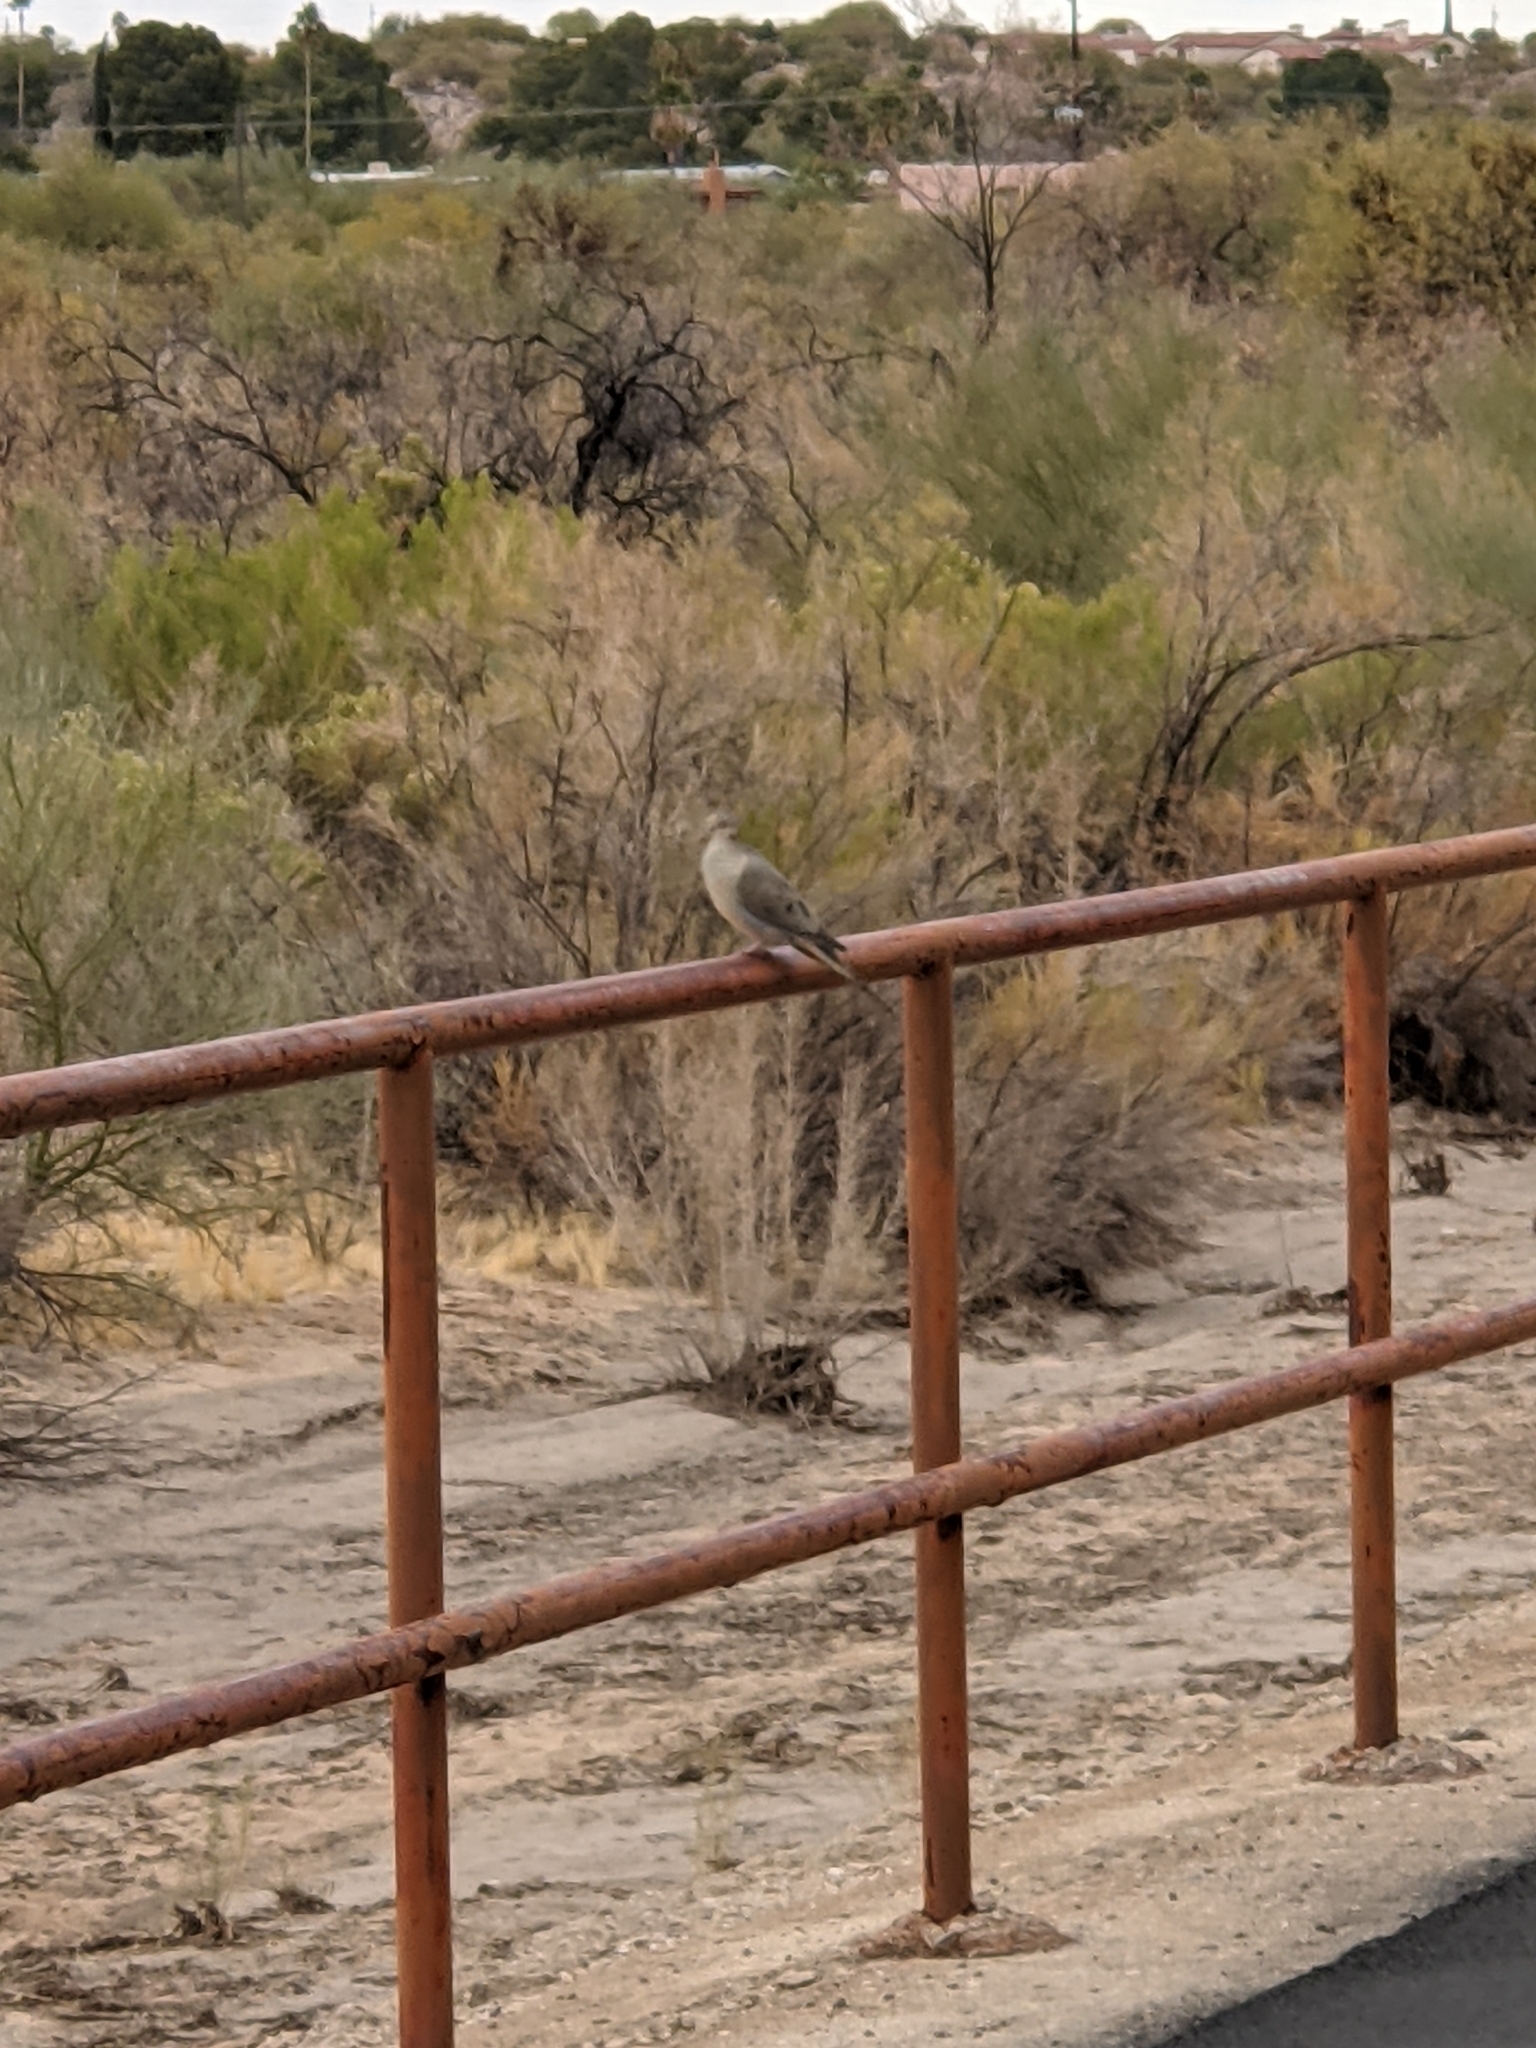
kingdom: Animalia
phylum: Chordata
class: Aves
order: Columbiformes
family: Columbidae
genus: Zenaida
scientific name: Zenaida macroura
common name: Mourning dove
